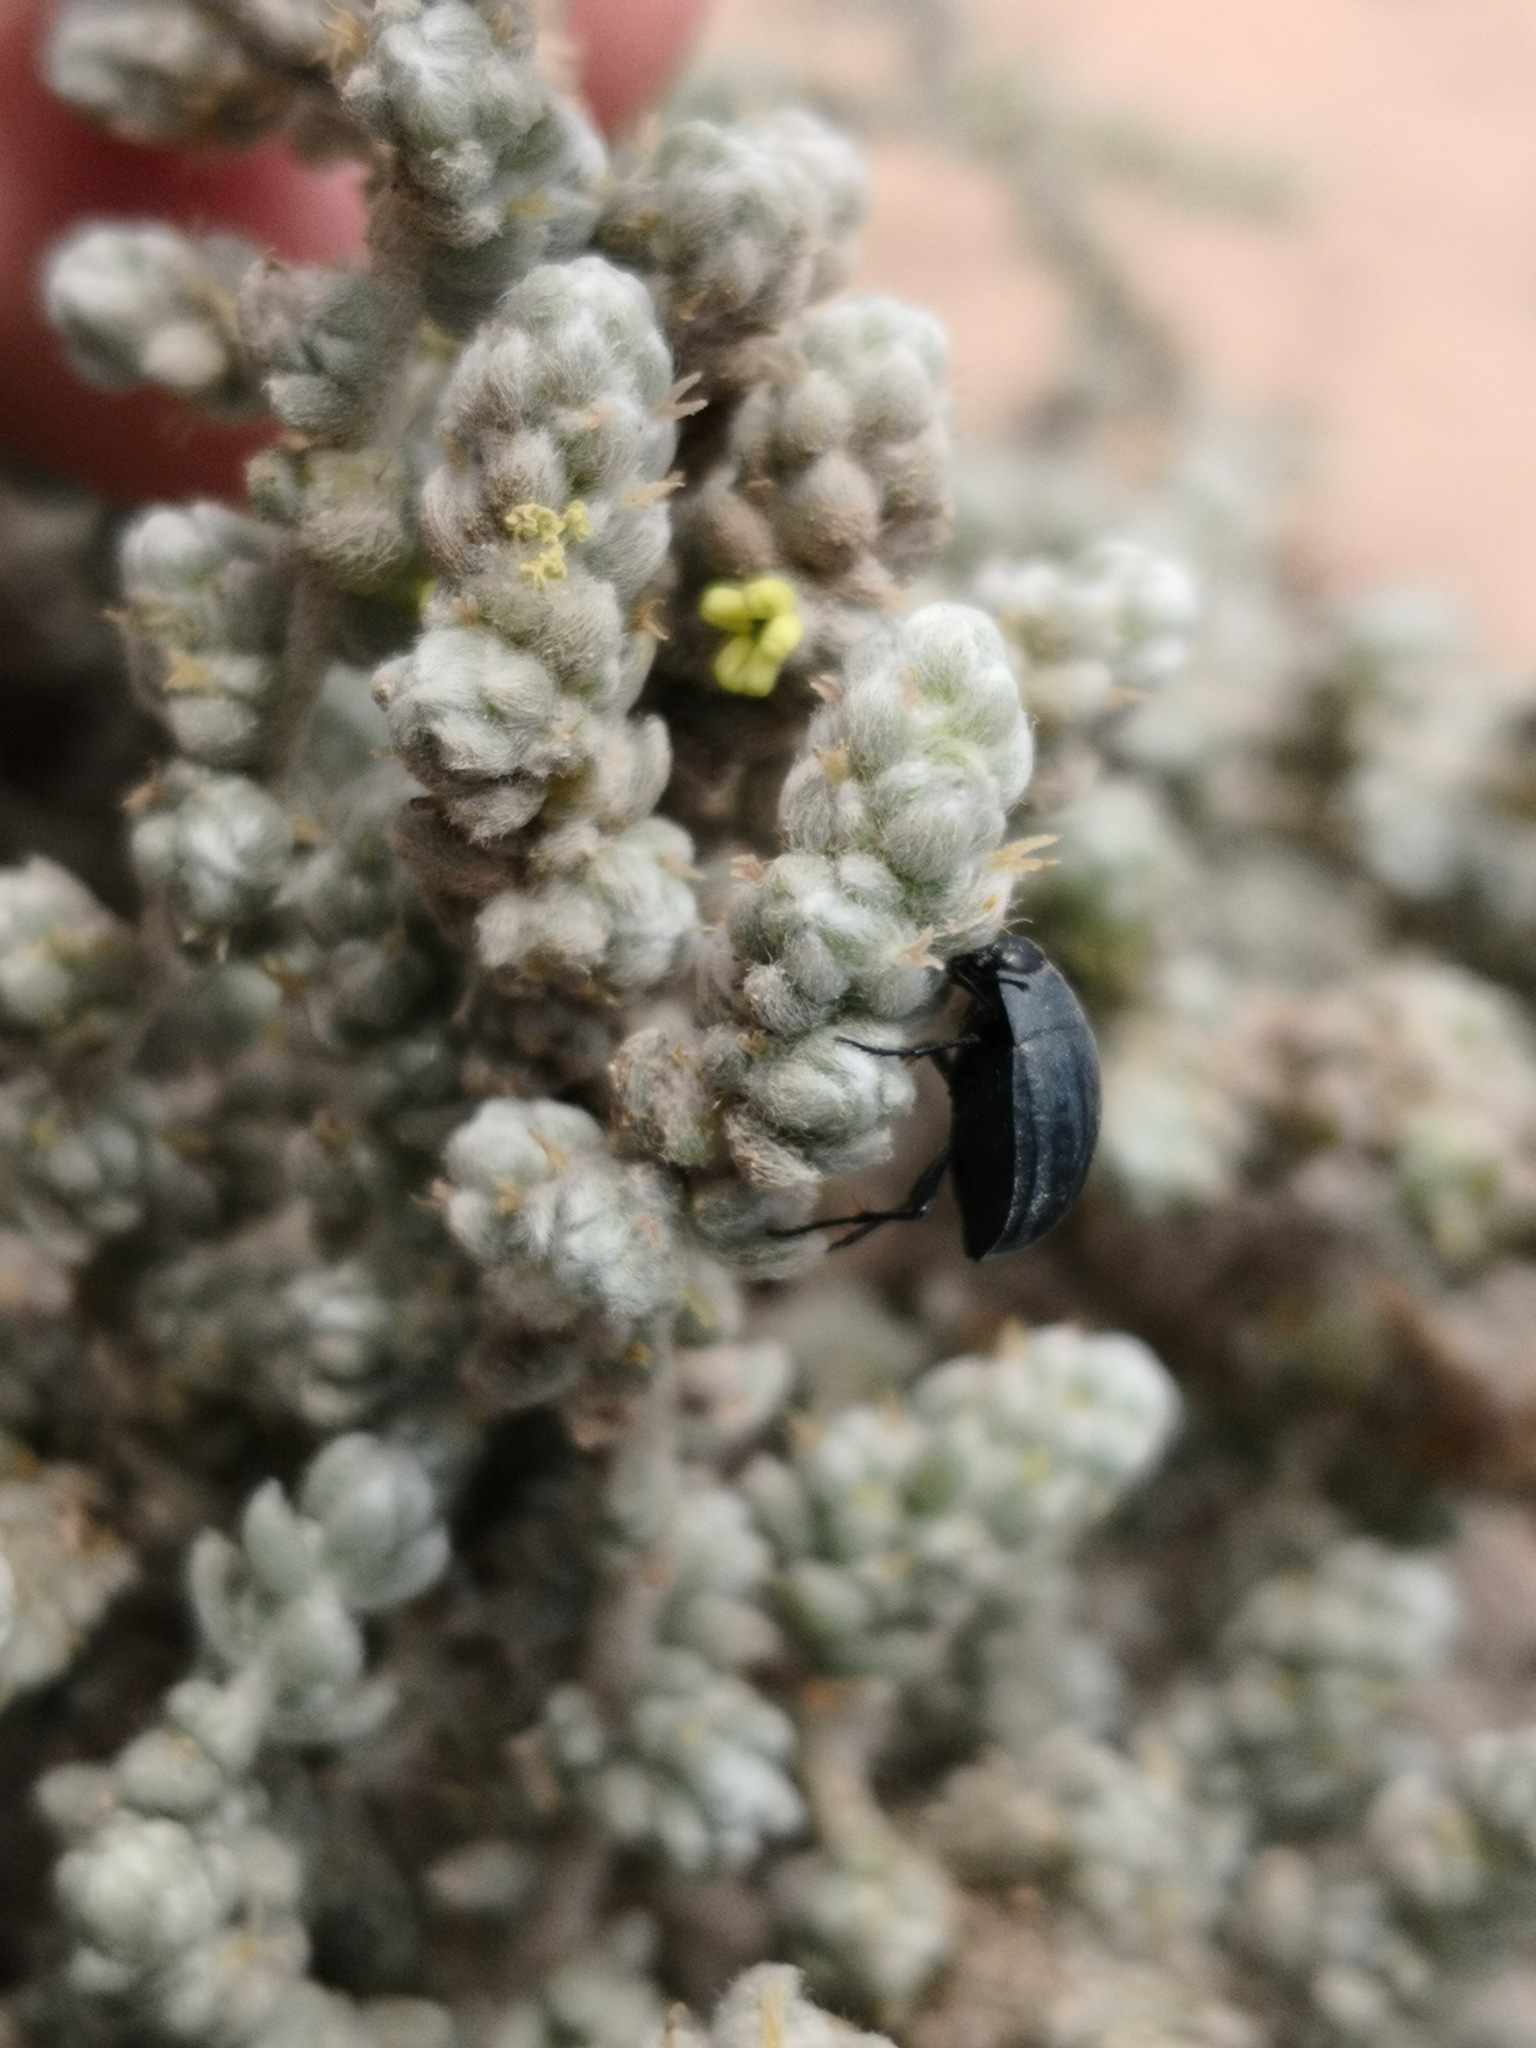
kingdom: Animalia
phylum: Arthropoda
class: Insecta
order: Coleoptera
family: Tenebrionidae
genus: Zophosis
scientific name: Zophosis bicarinata
